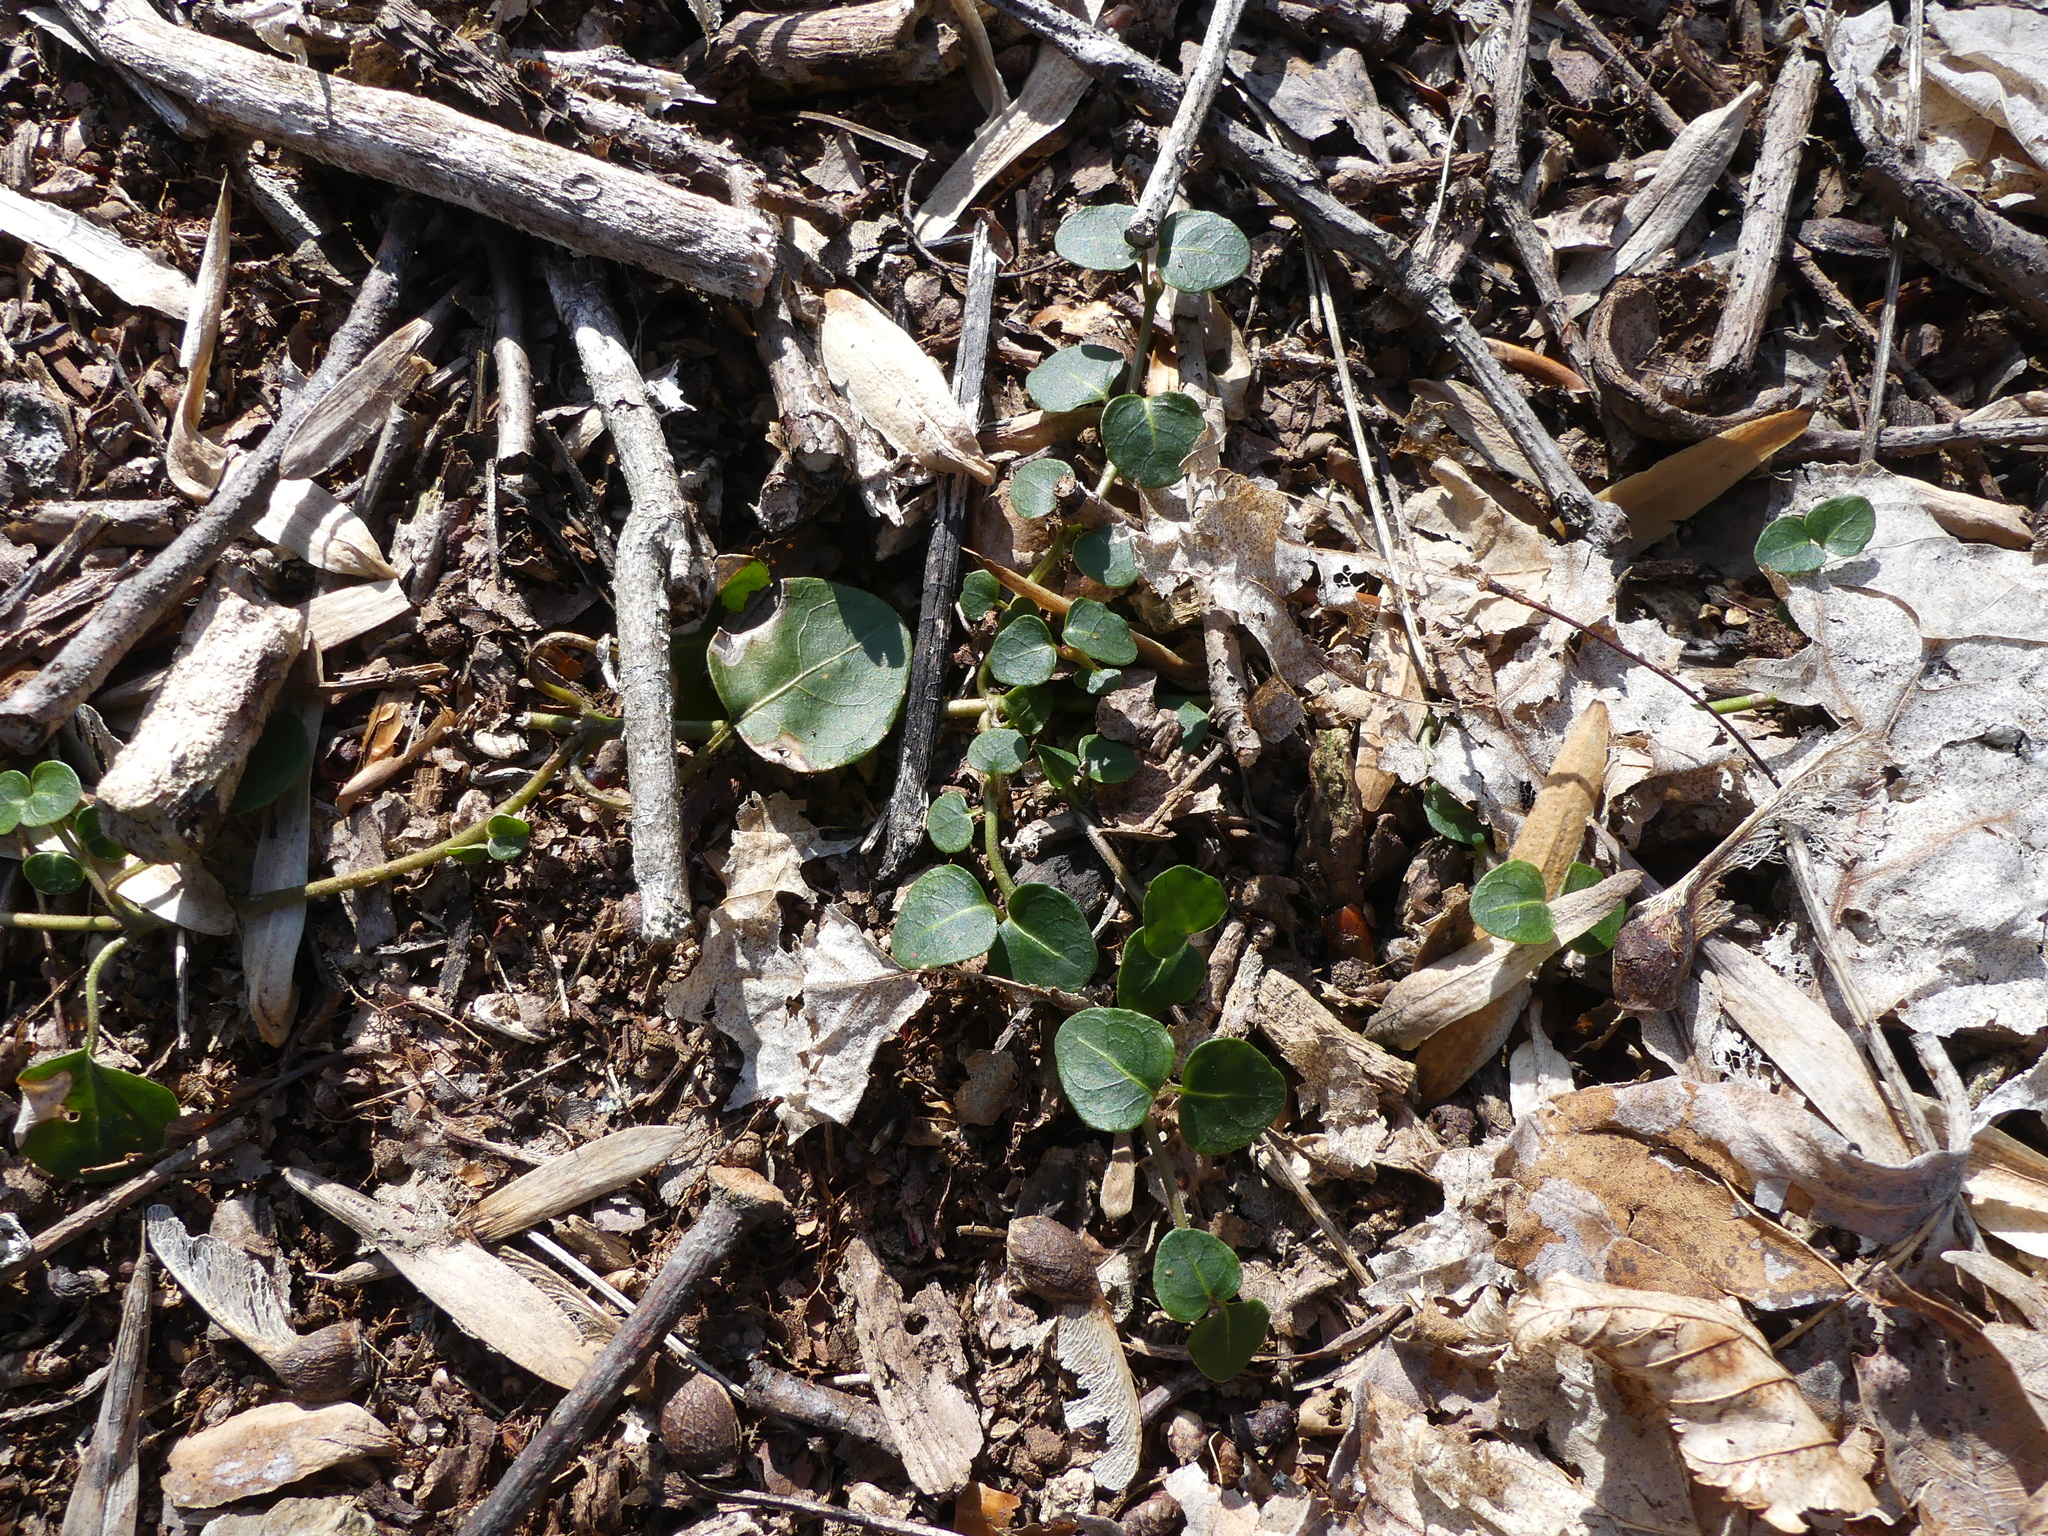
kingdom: Plantae
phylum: Tracheophyta
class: Magnoliopsida
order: Gentianales
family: Rubiaceae
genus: Mitchella
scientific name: Mitchella repens
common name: Partridge-berry
